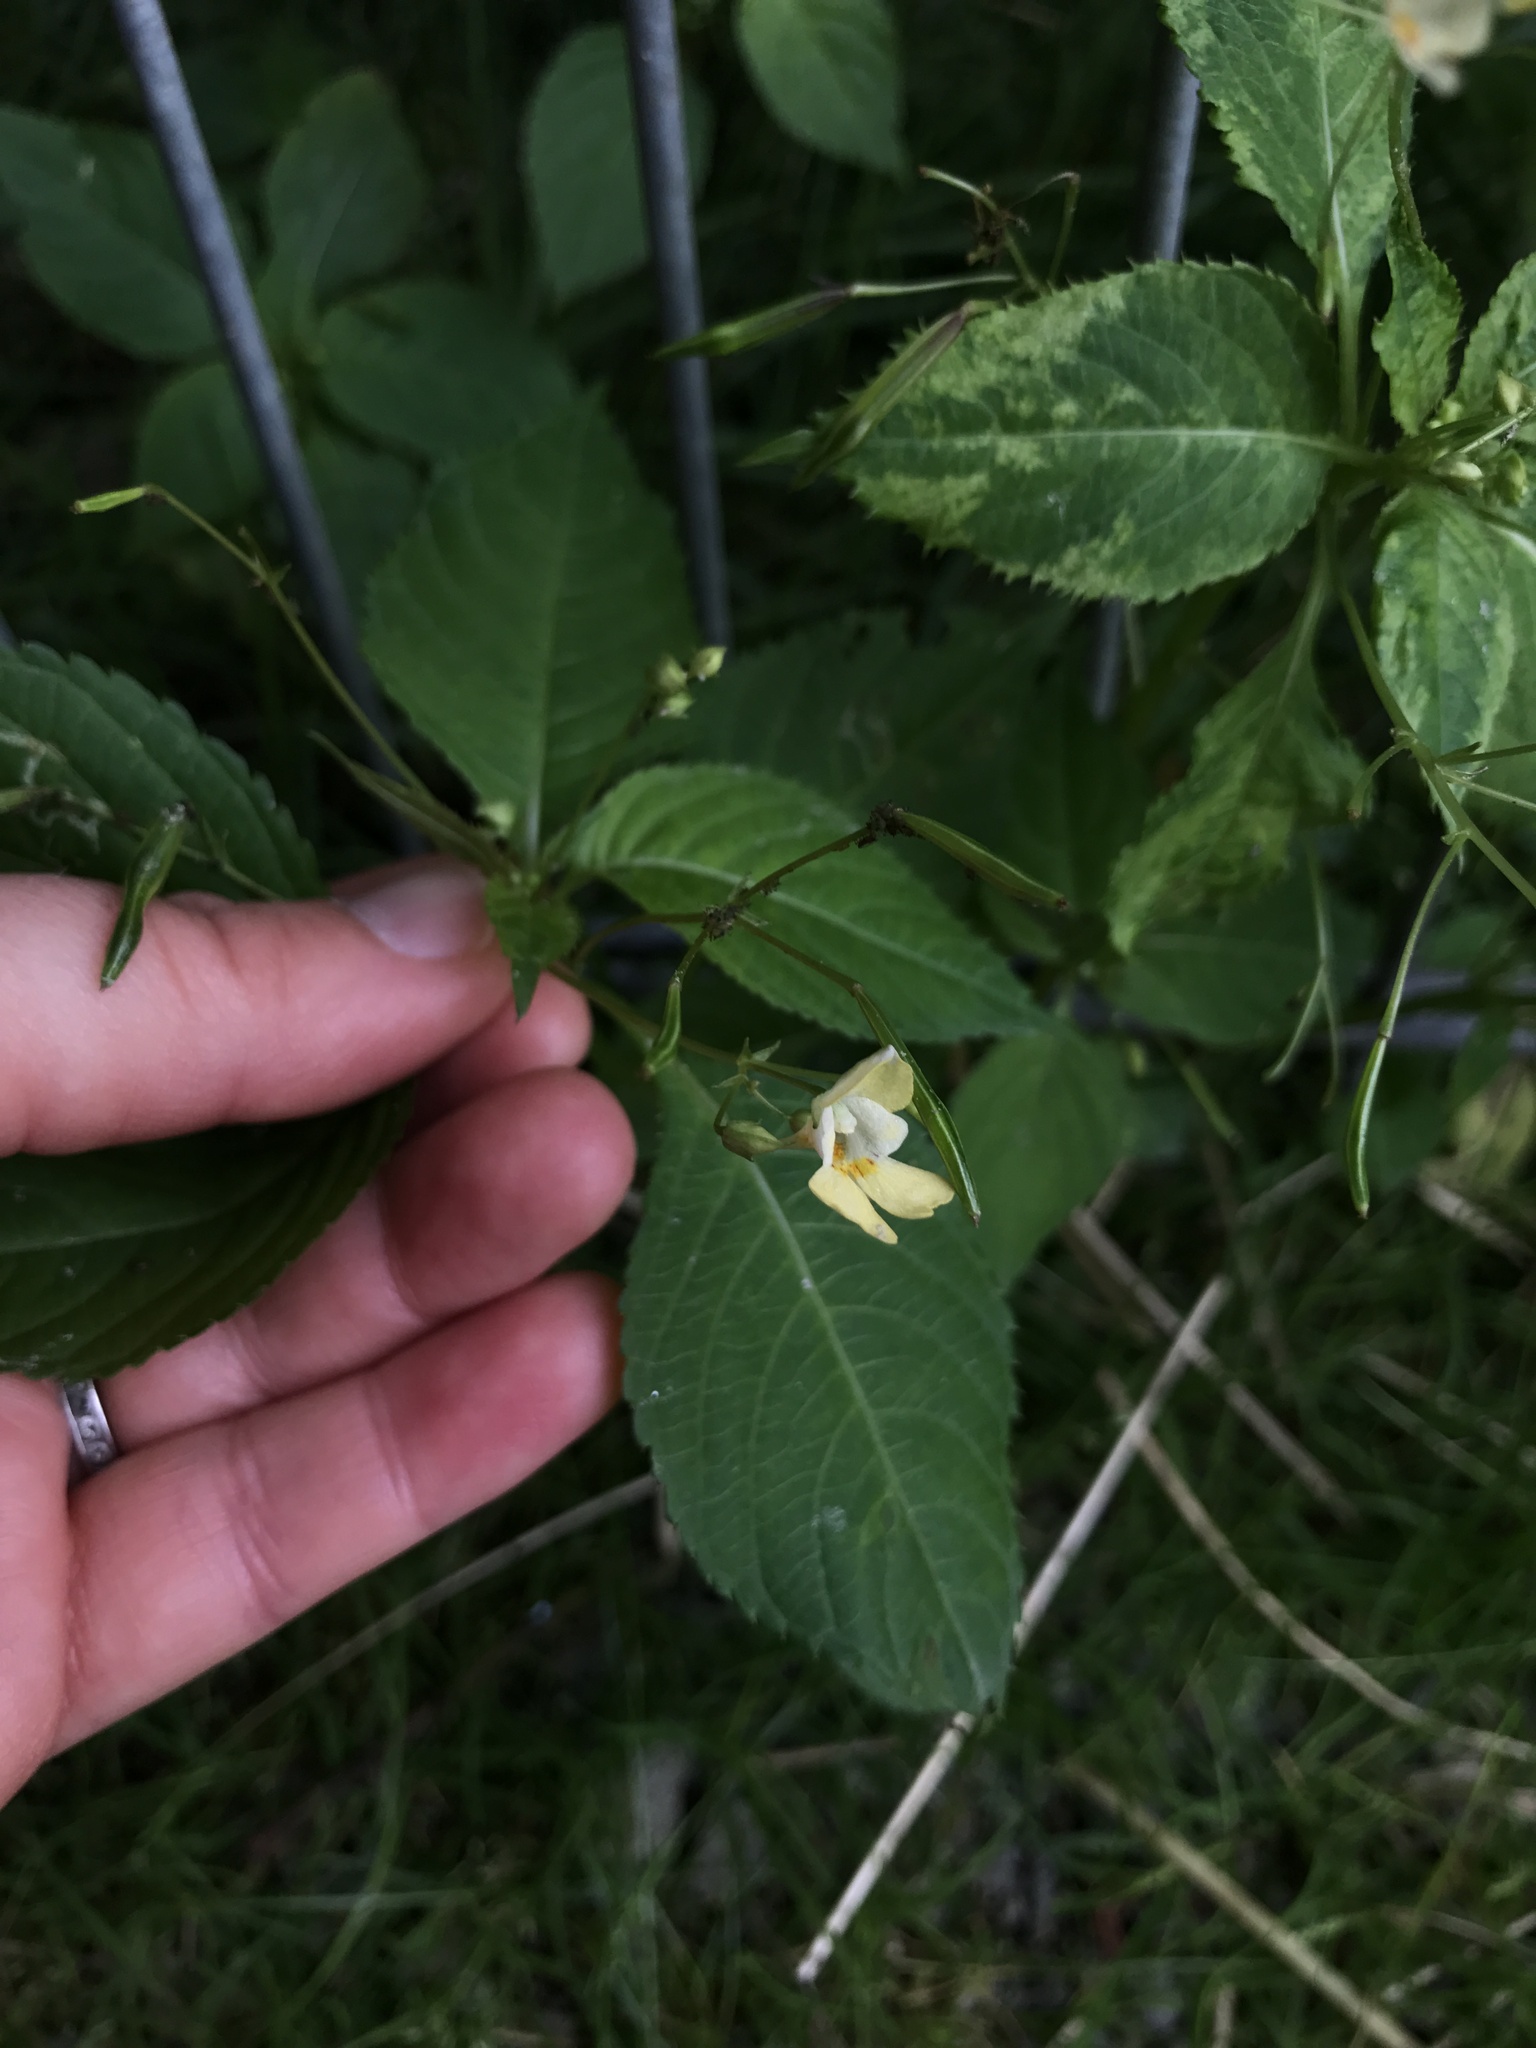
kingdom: Plantae
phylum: Tracheophyta
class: Magnoliopsida
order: Ericales
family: Balsaminaceae
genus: Impatiens
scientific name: Impatiens parviflora
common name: Small balsam
